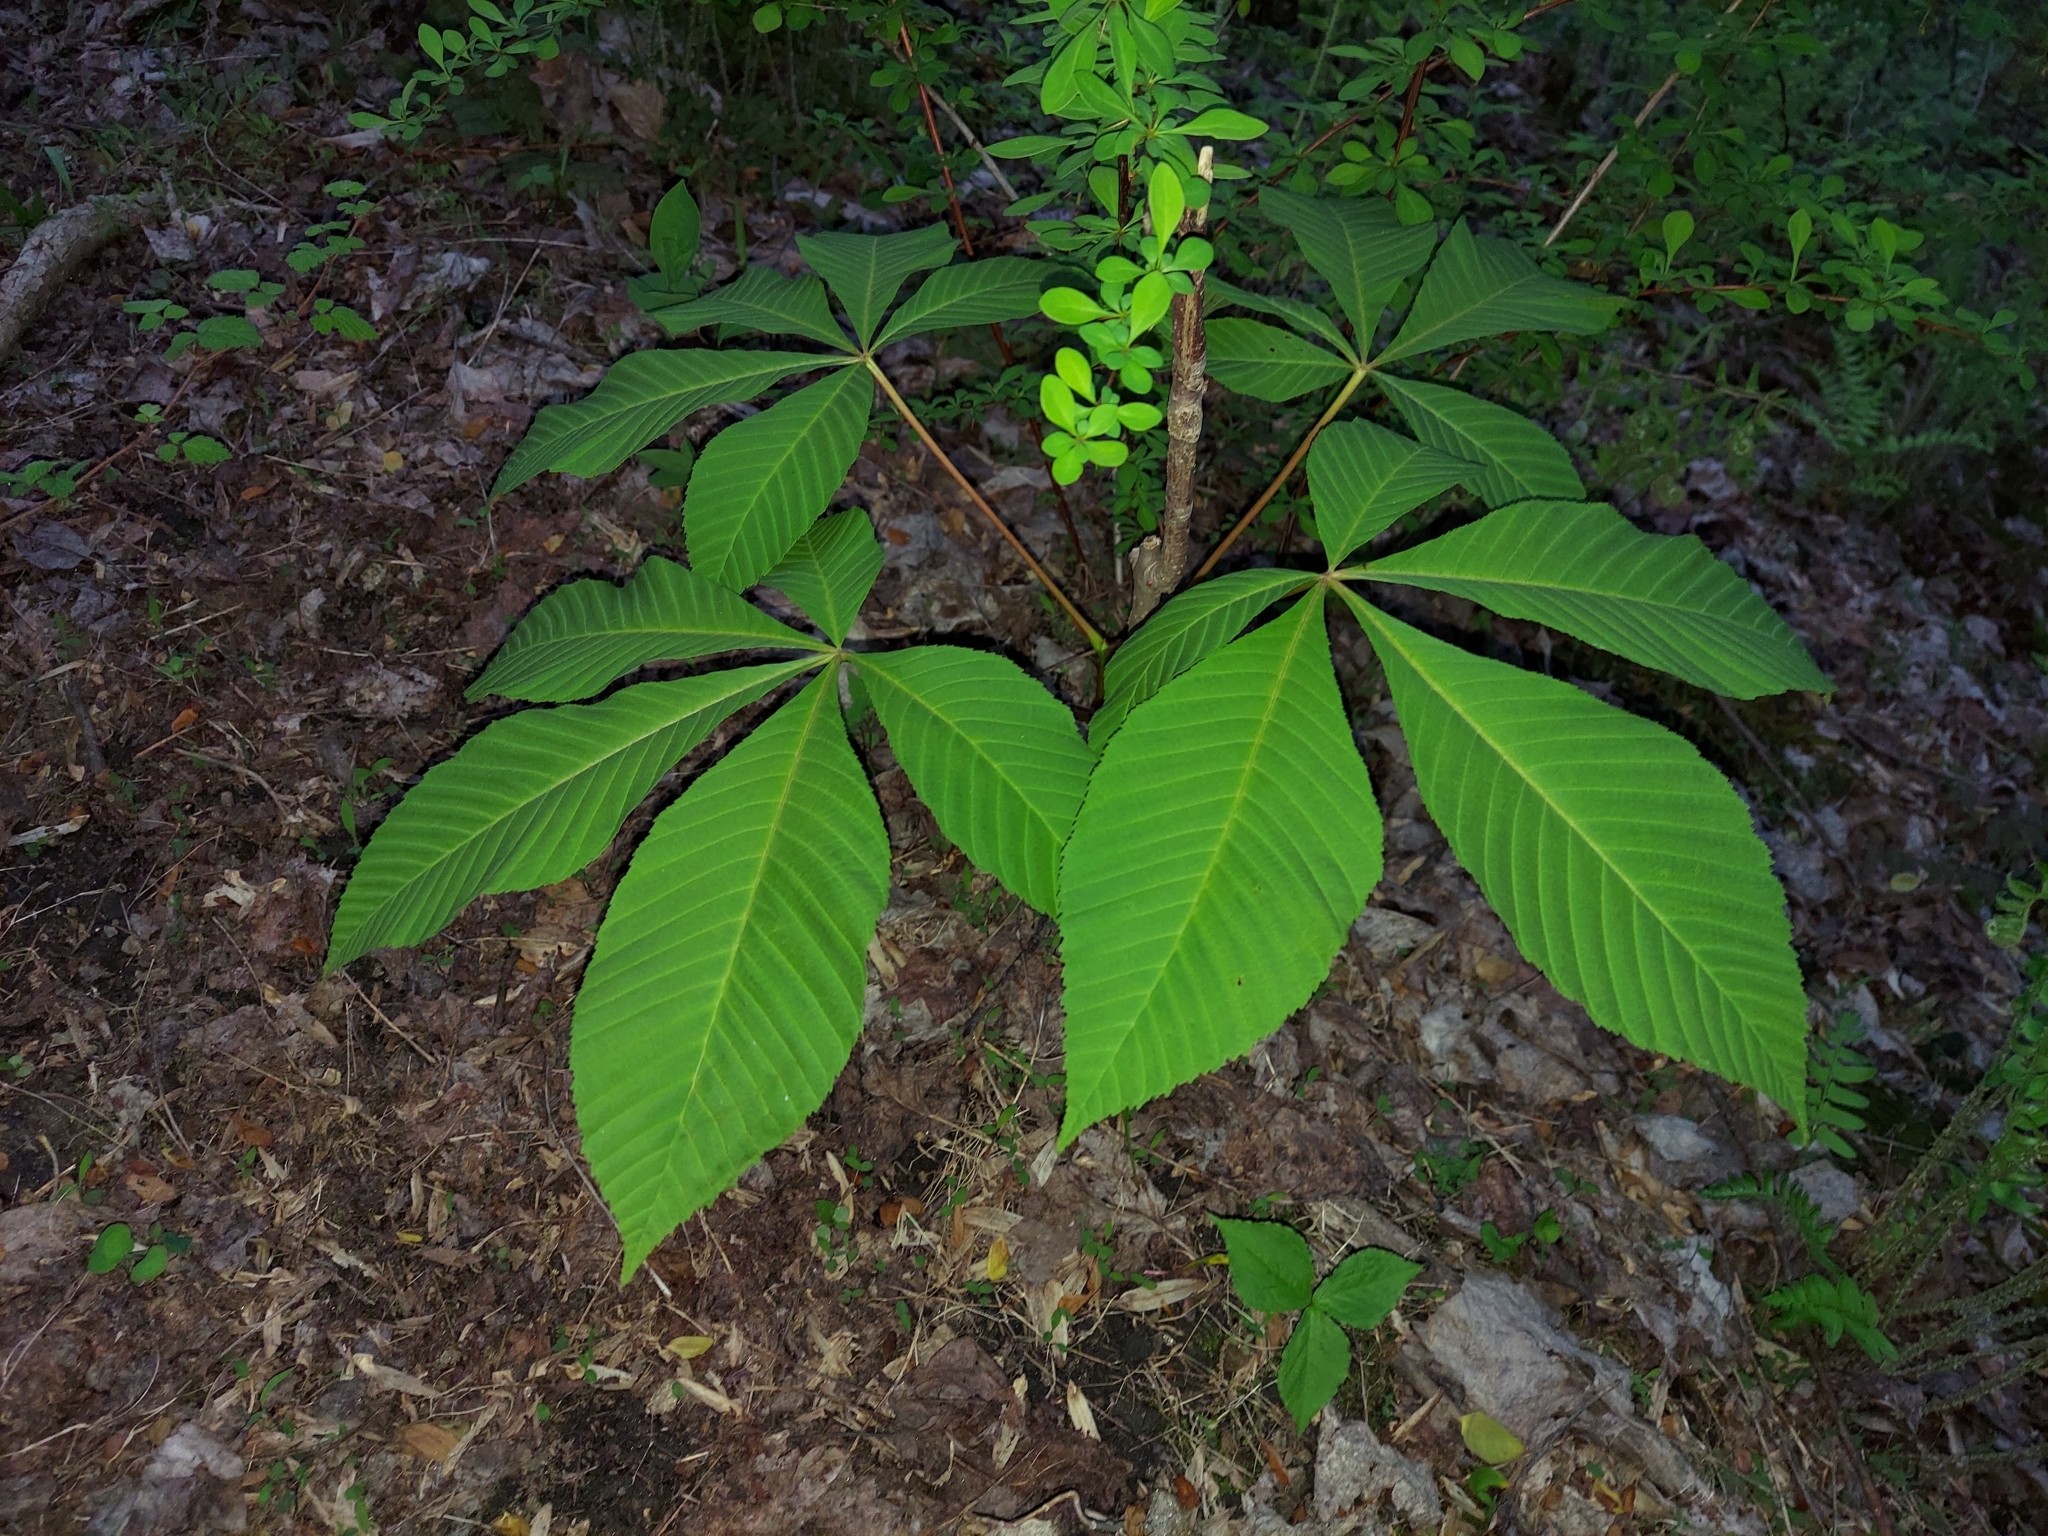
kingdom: Plantae
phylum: Tracheophyta
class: Magnoliopsida
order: Sapindales
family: Sapindaceae
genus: Aesculus
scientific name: Aesculus flava
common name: Yellow buckeye
